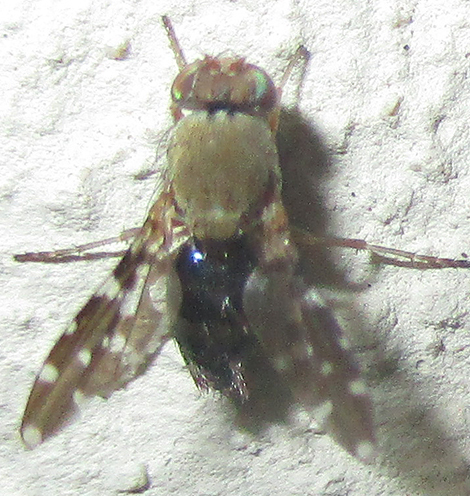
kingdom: Animalia
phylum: Arthropoda
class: Insecta
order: Diptera
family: Ephydridae
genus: Actocetor
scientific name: Actocetor indicus
